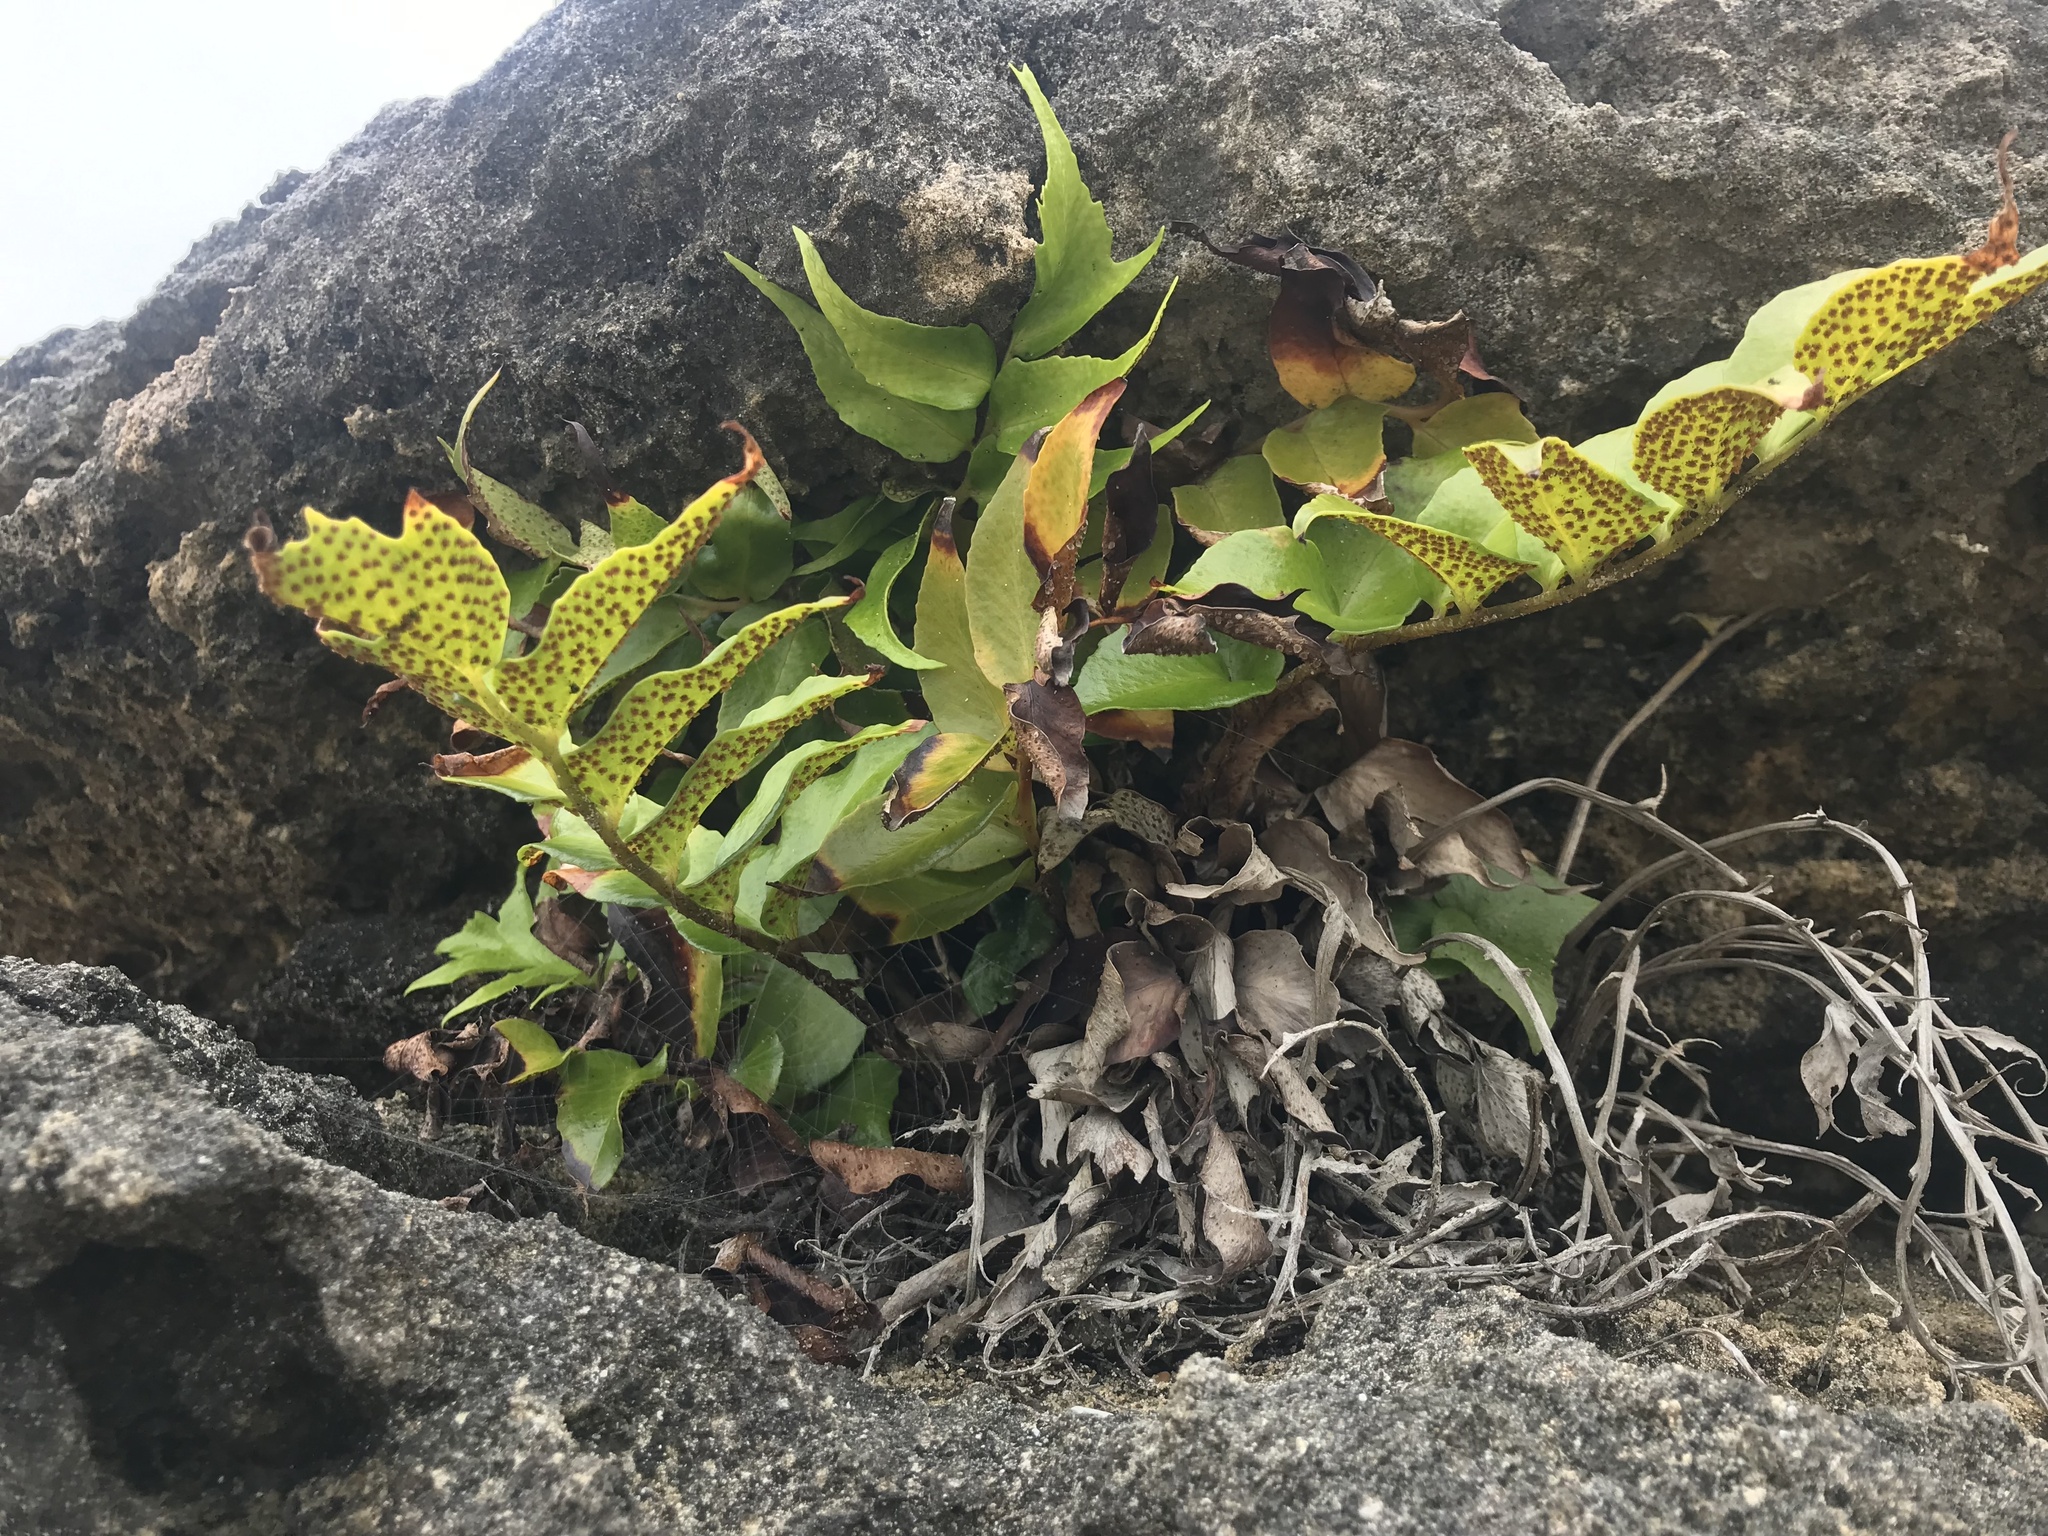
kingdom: Plantae
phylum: Tracheophyta
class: Polypodiopsida
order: Polypodiales
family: Dryopteridaceae
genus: Cyrtomium
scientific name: Cyrtomium falcatum
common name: House holly-fern
